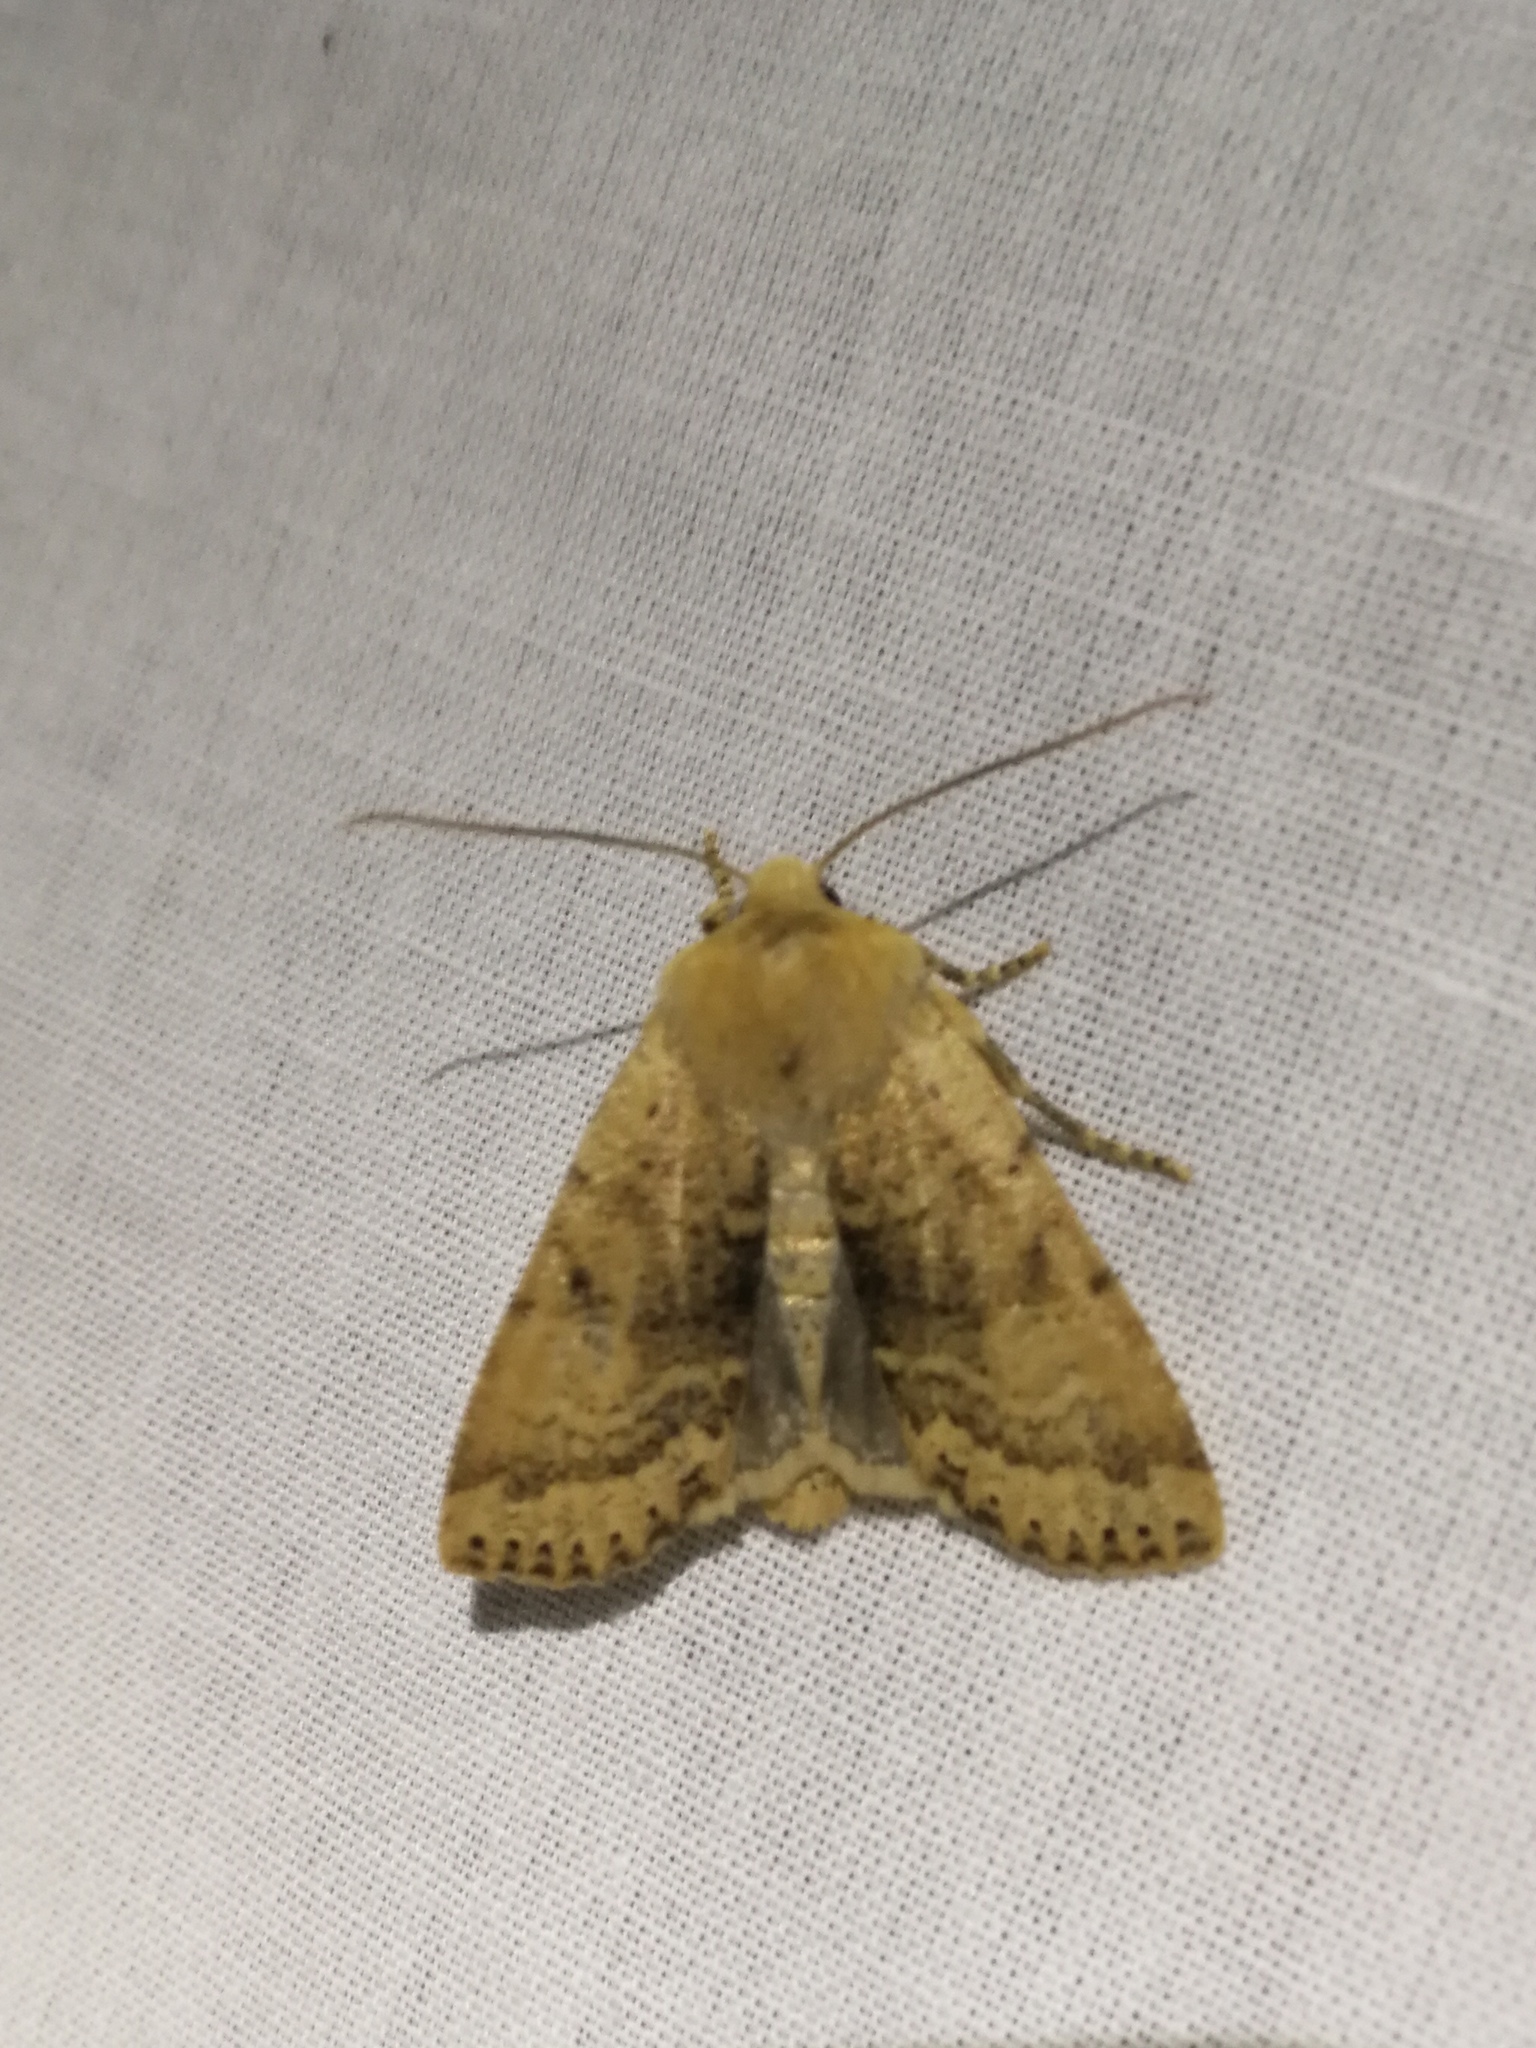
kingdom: Animalia
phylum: Arthropoda
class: Insecta
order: Lepidoptera
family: Noctuidae
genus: Conistra
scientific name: Conistra daubei
